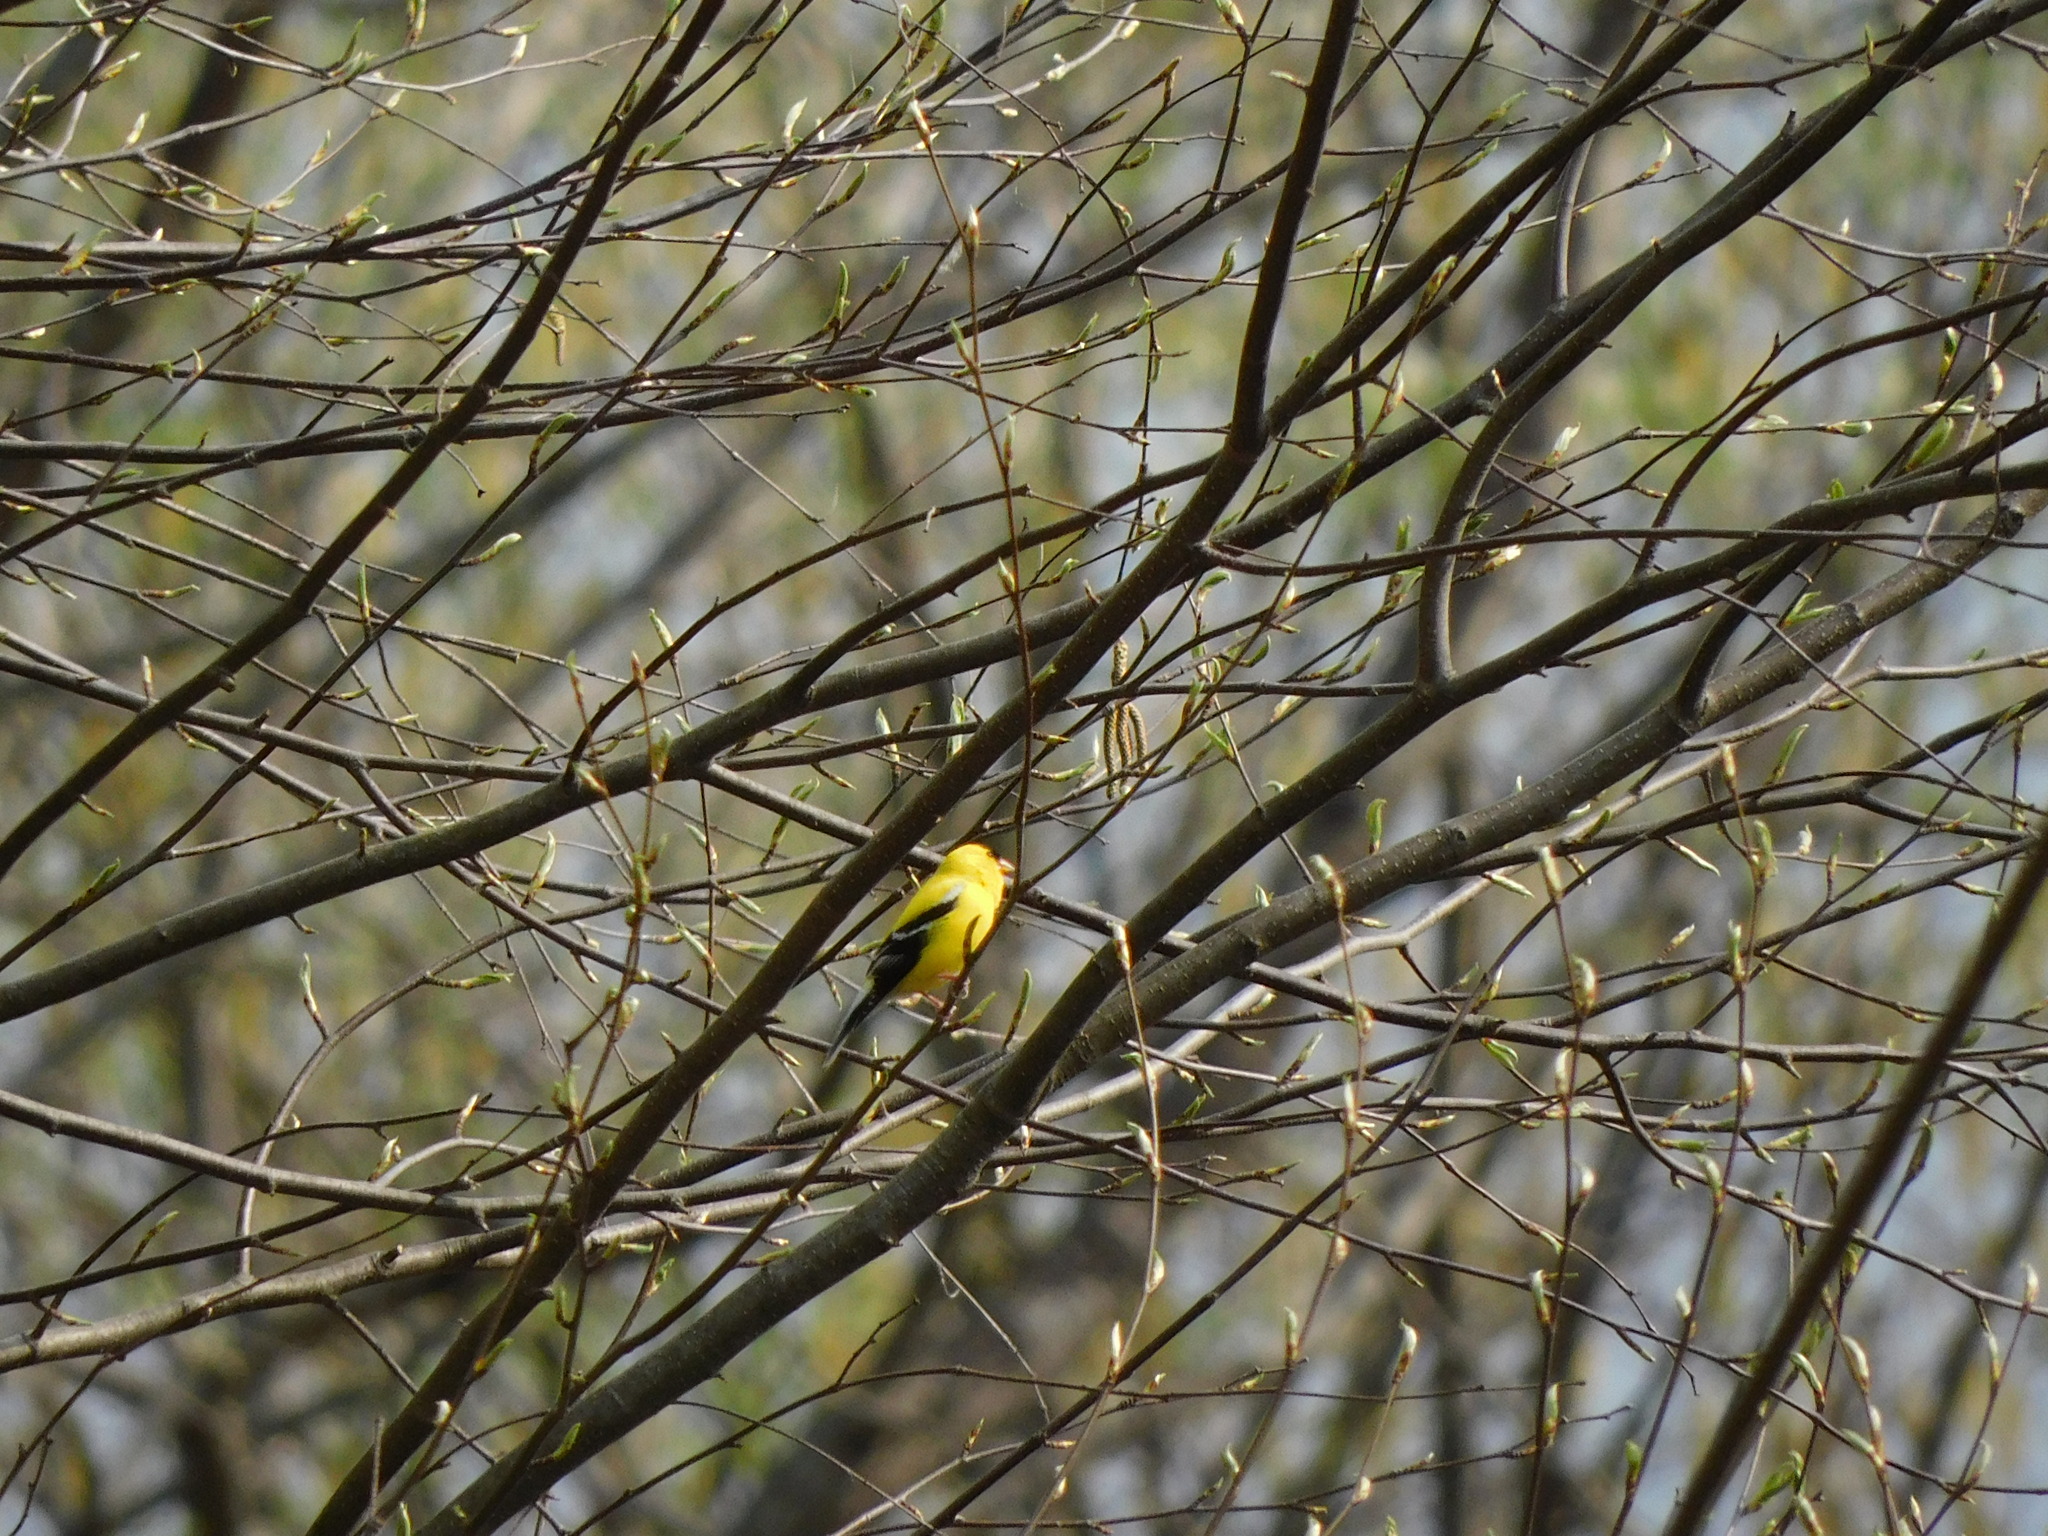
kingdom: Animalia
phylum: Chordata
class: Aves
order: Passeriformes
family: Fringillidae
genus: Spinus
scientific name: Spinus tristis
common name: American goldfinch
